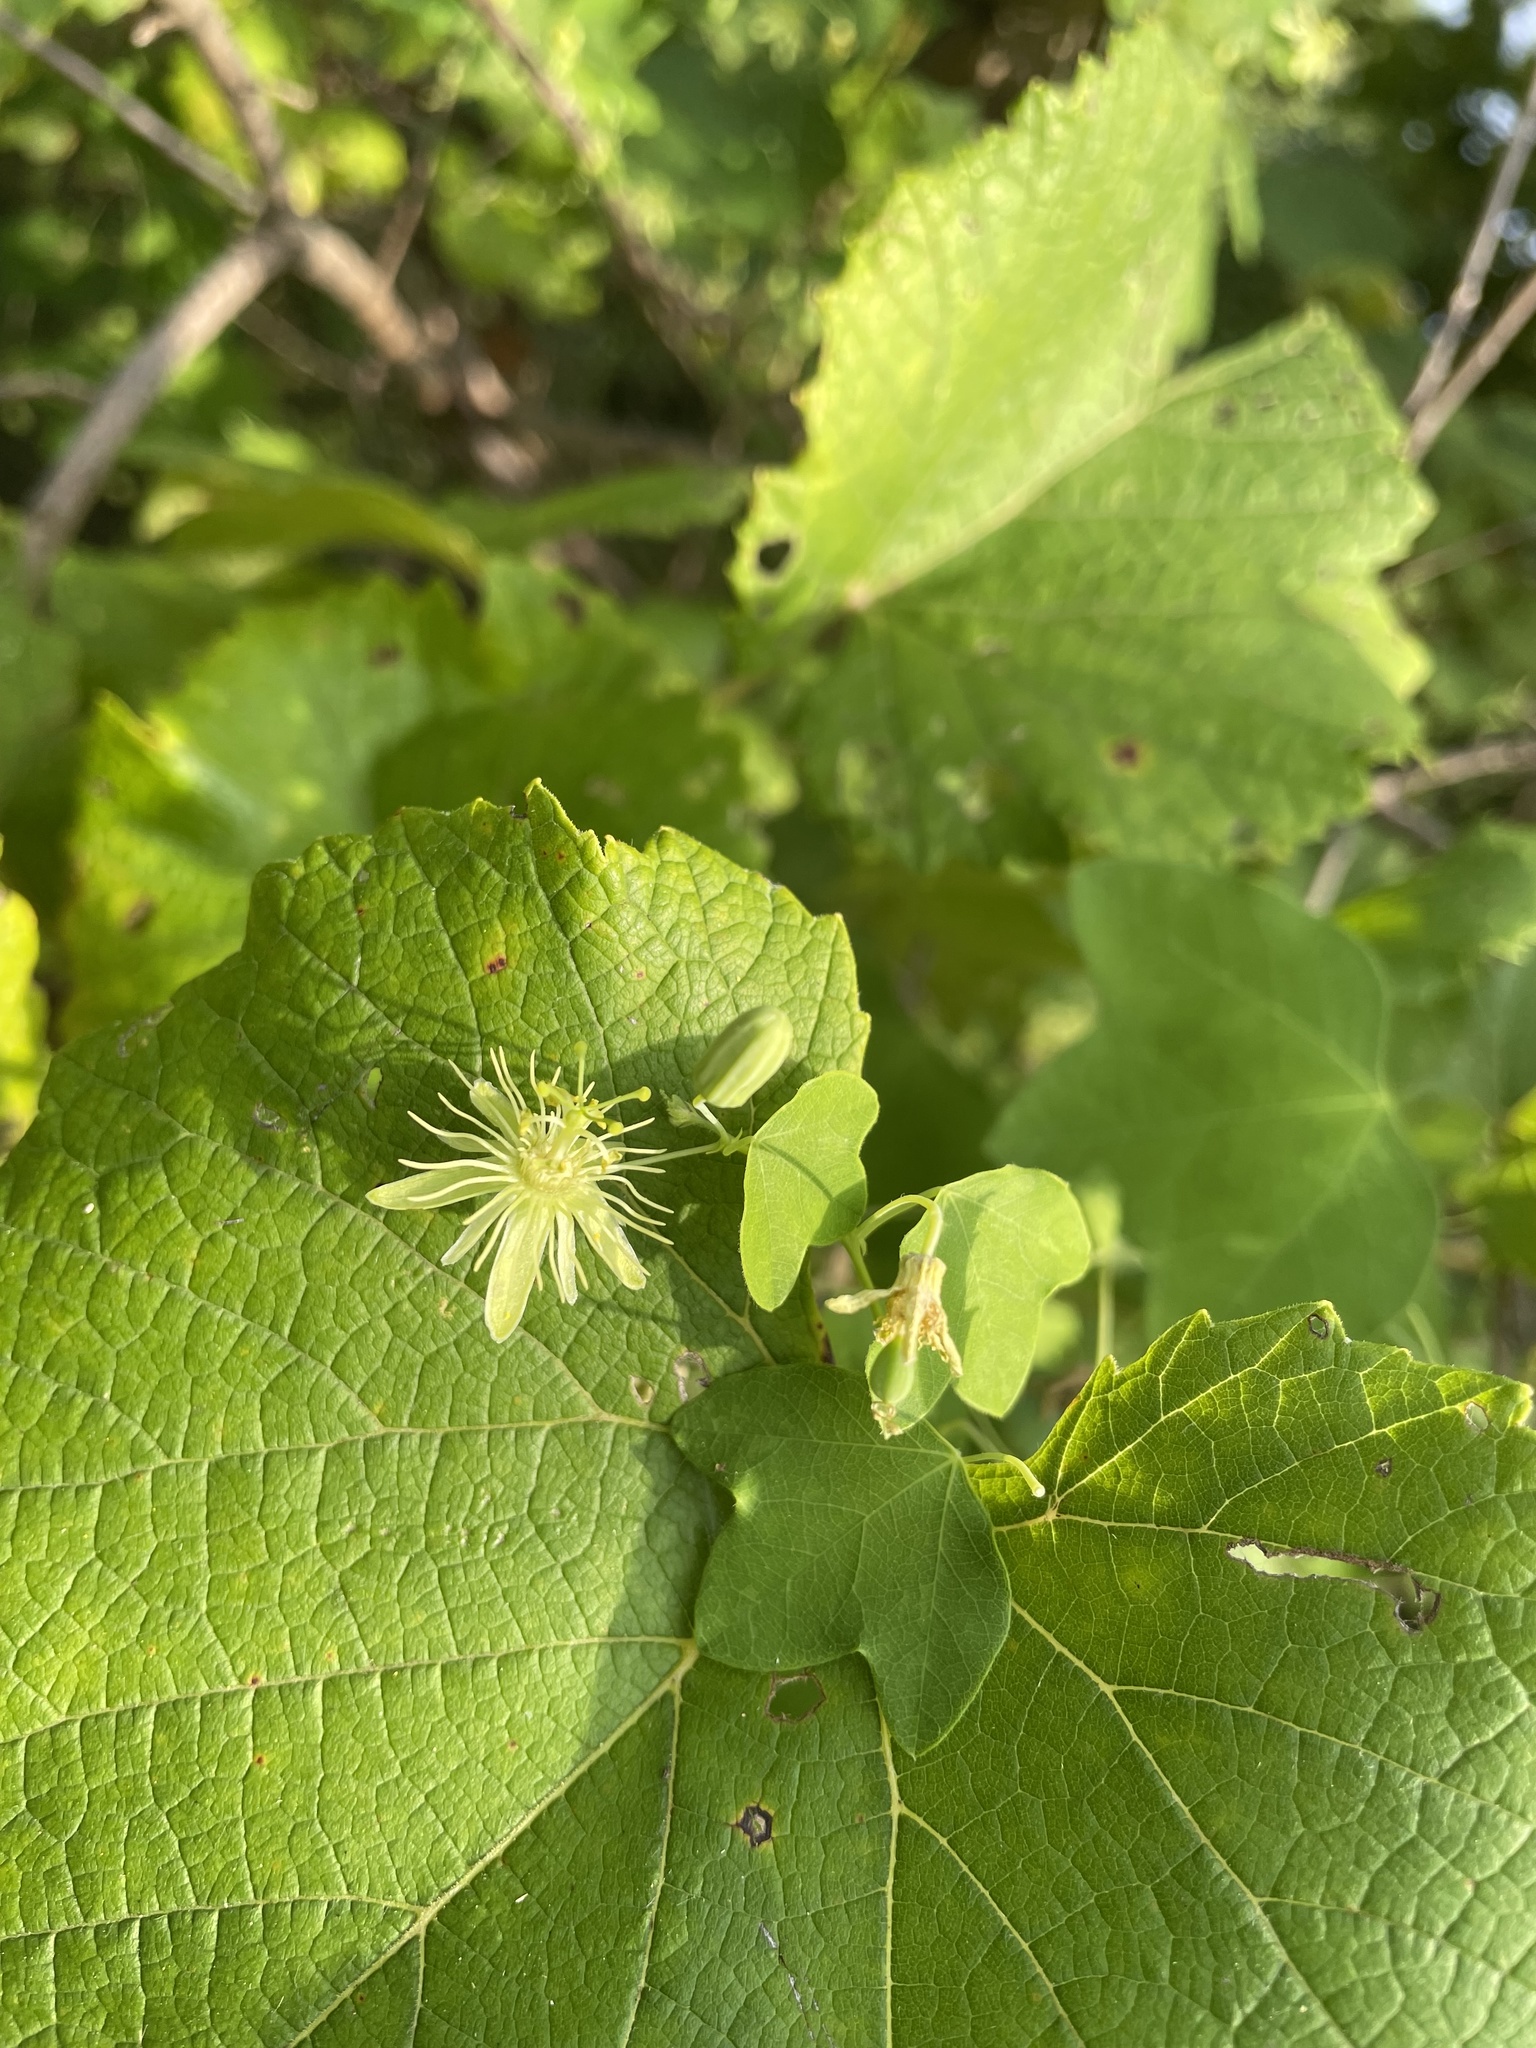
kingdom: Plantae
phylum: Tracheophyta
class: Magnoliopsida
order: Malpighiales
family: Passifloraceae
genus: Passiflora
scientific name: Passiflora lutea
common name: Yellow passionflower
